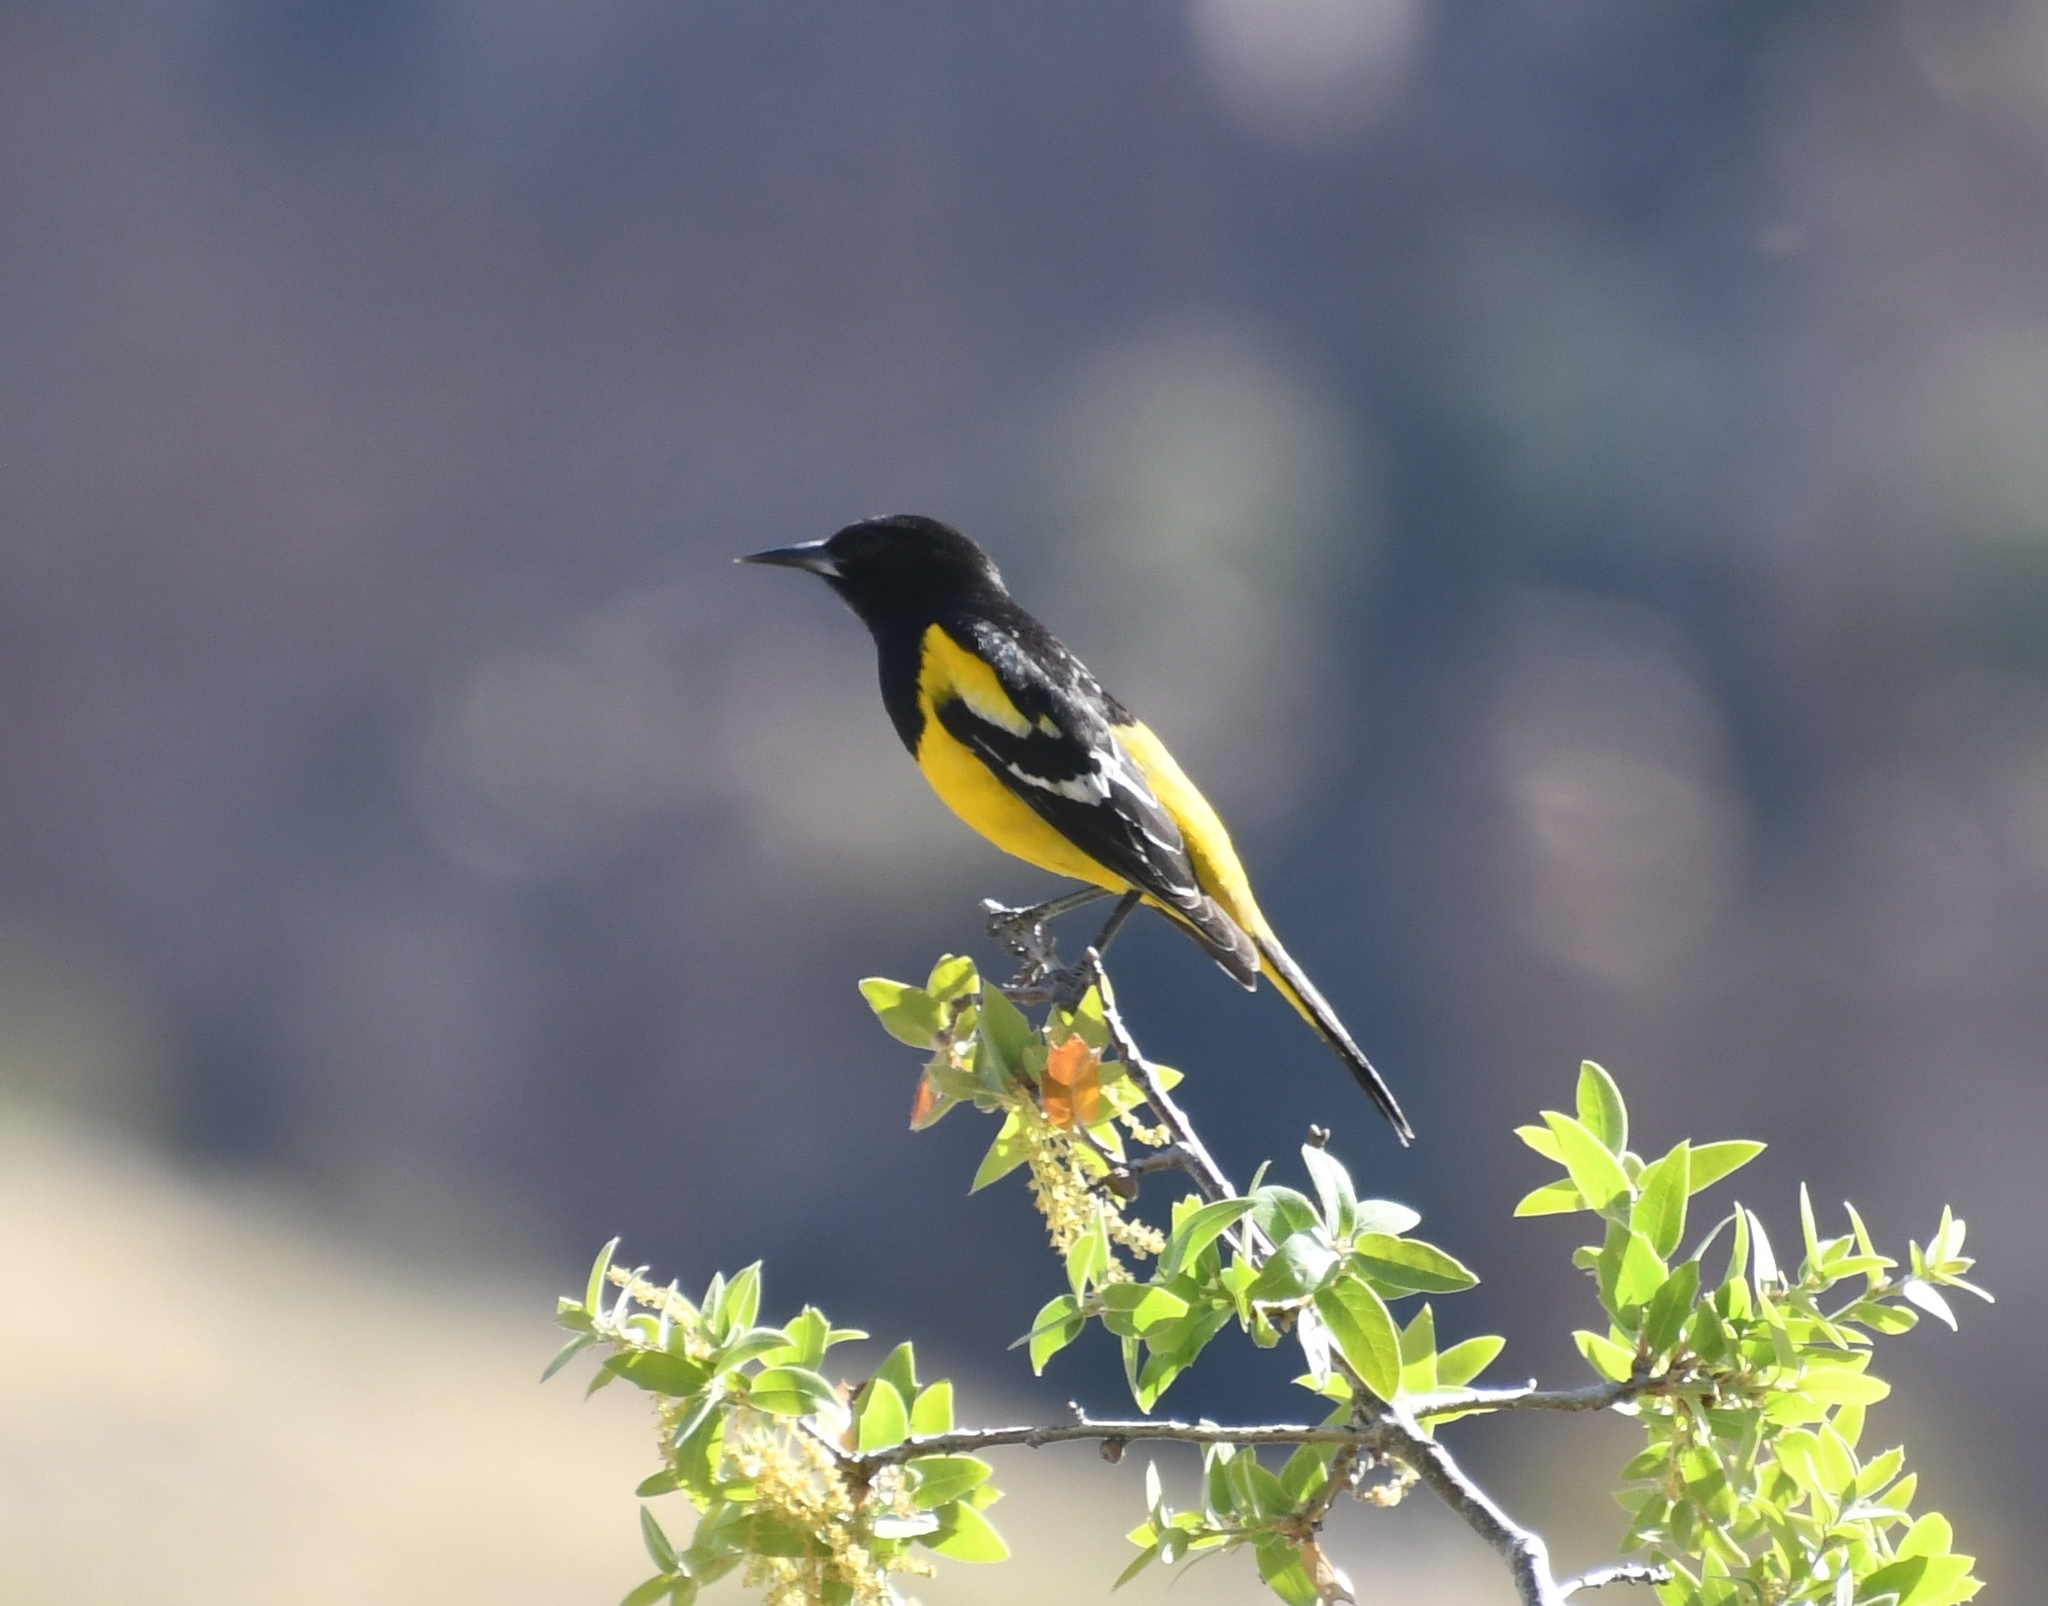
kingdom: Animalia
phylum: Chordata
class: Aves
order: Passeriformes
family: Icteridae
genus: Icterus
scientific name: Icterus parisorum
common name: Scott's oriole
